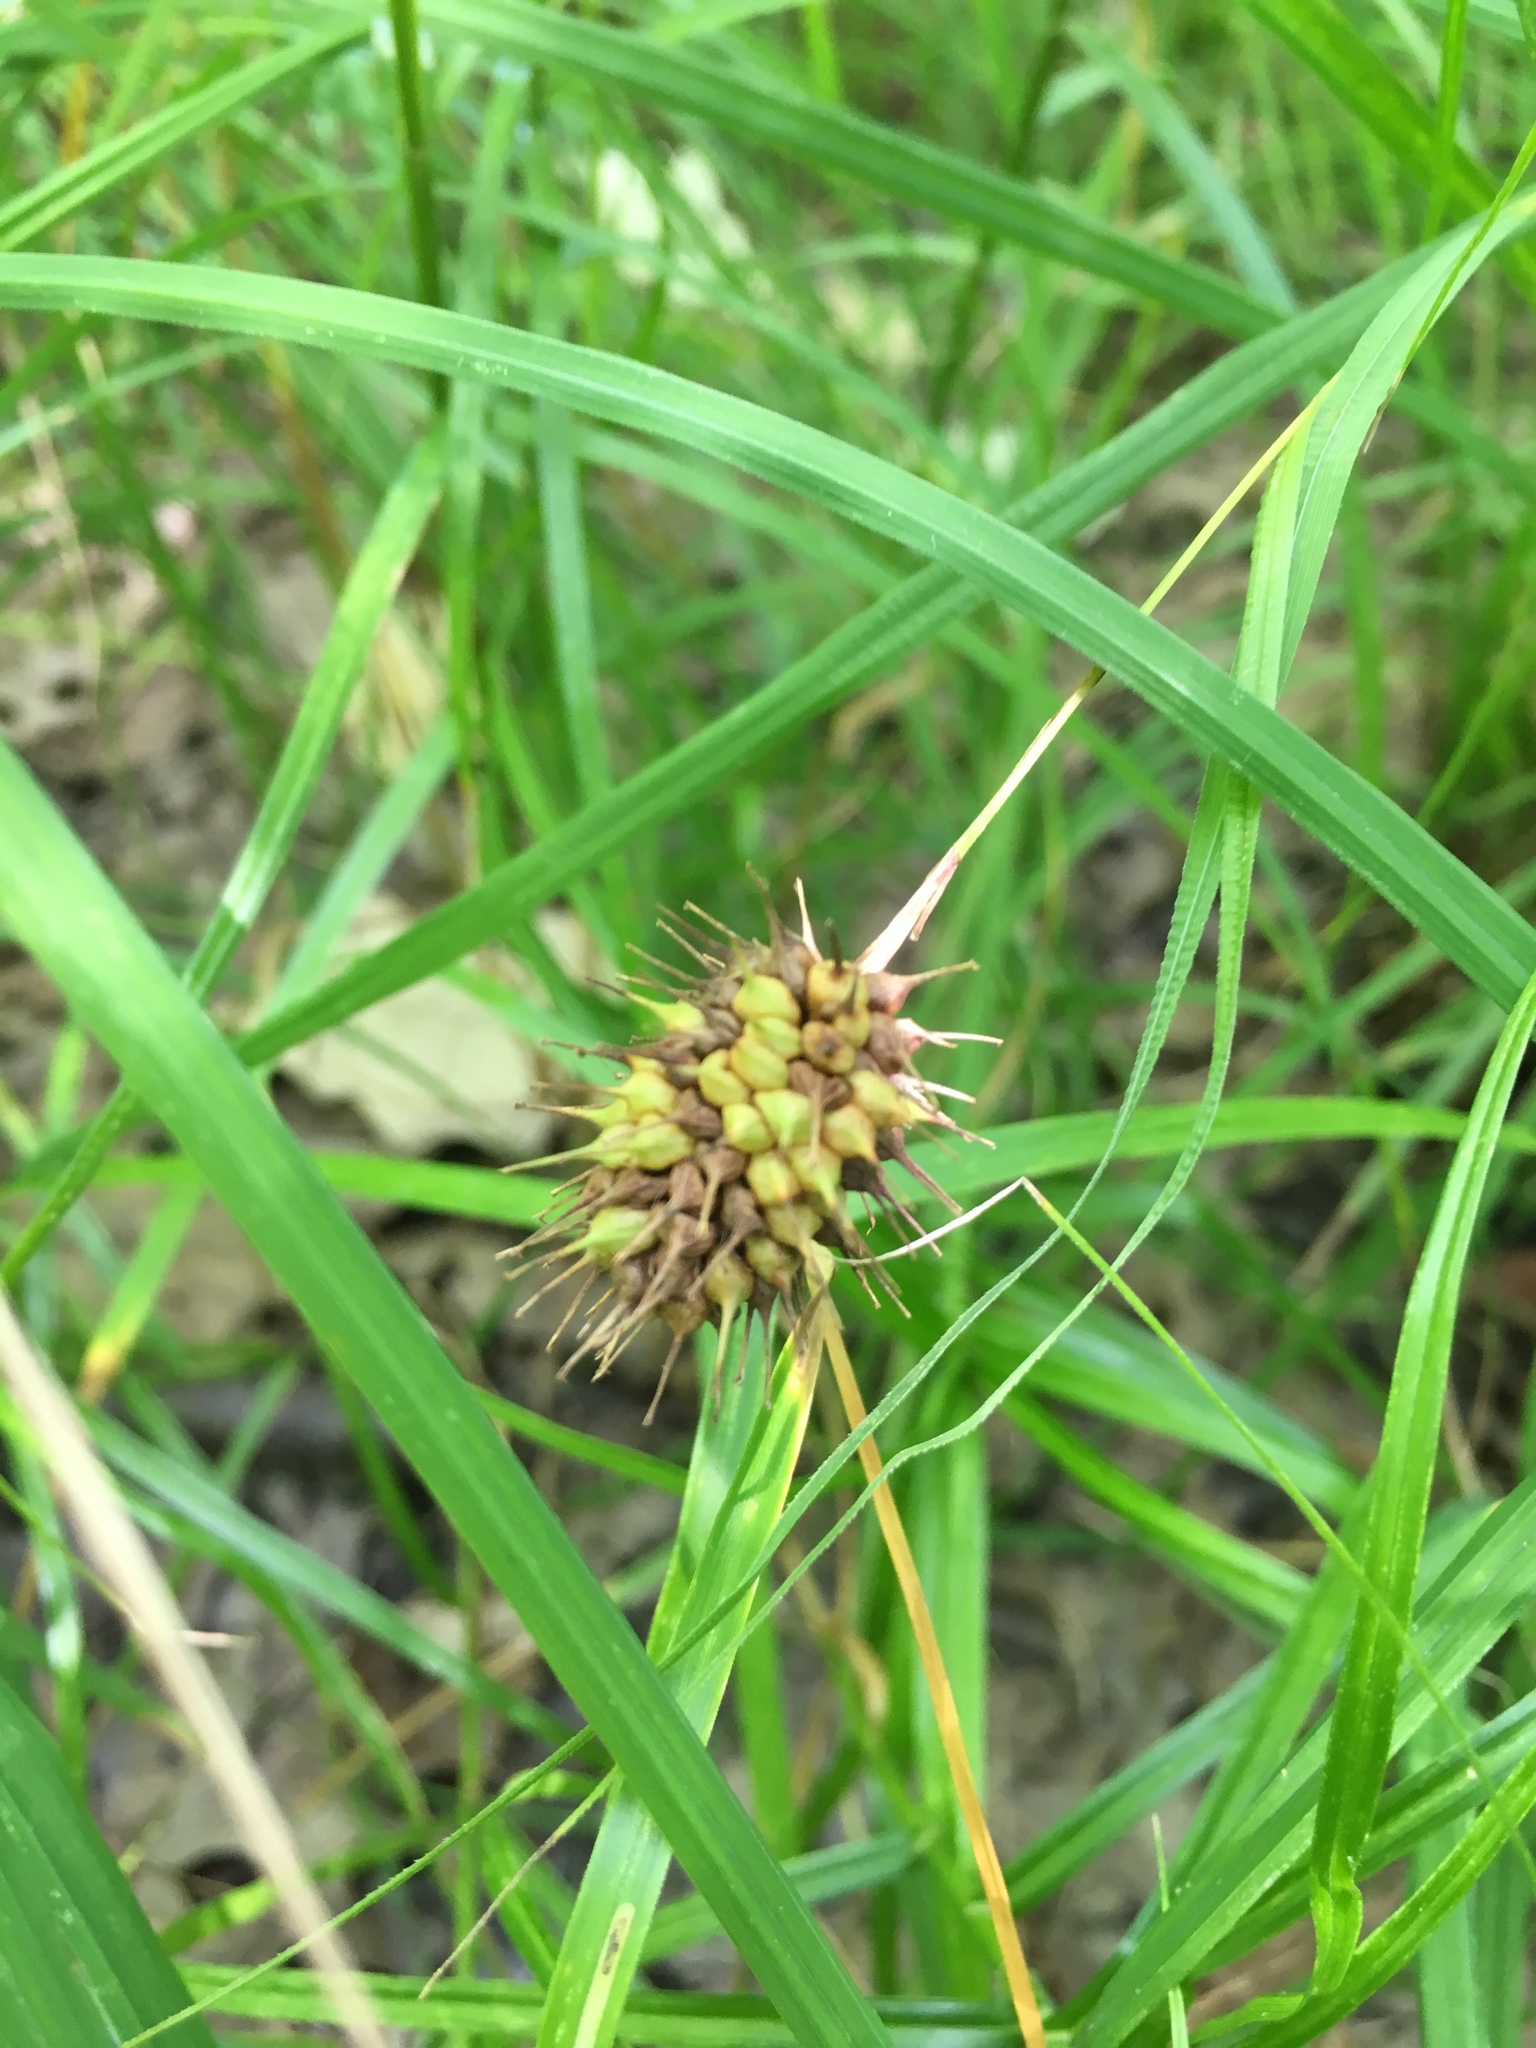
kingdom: Plantae
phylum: Tracheophyta
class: Liliopsida
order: Poales
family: Cyperaceae
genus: Carex
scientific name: Carex squarrosa
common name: Narrow-leaved cattail sedge
